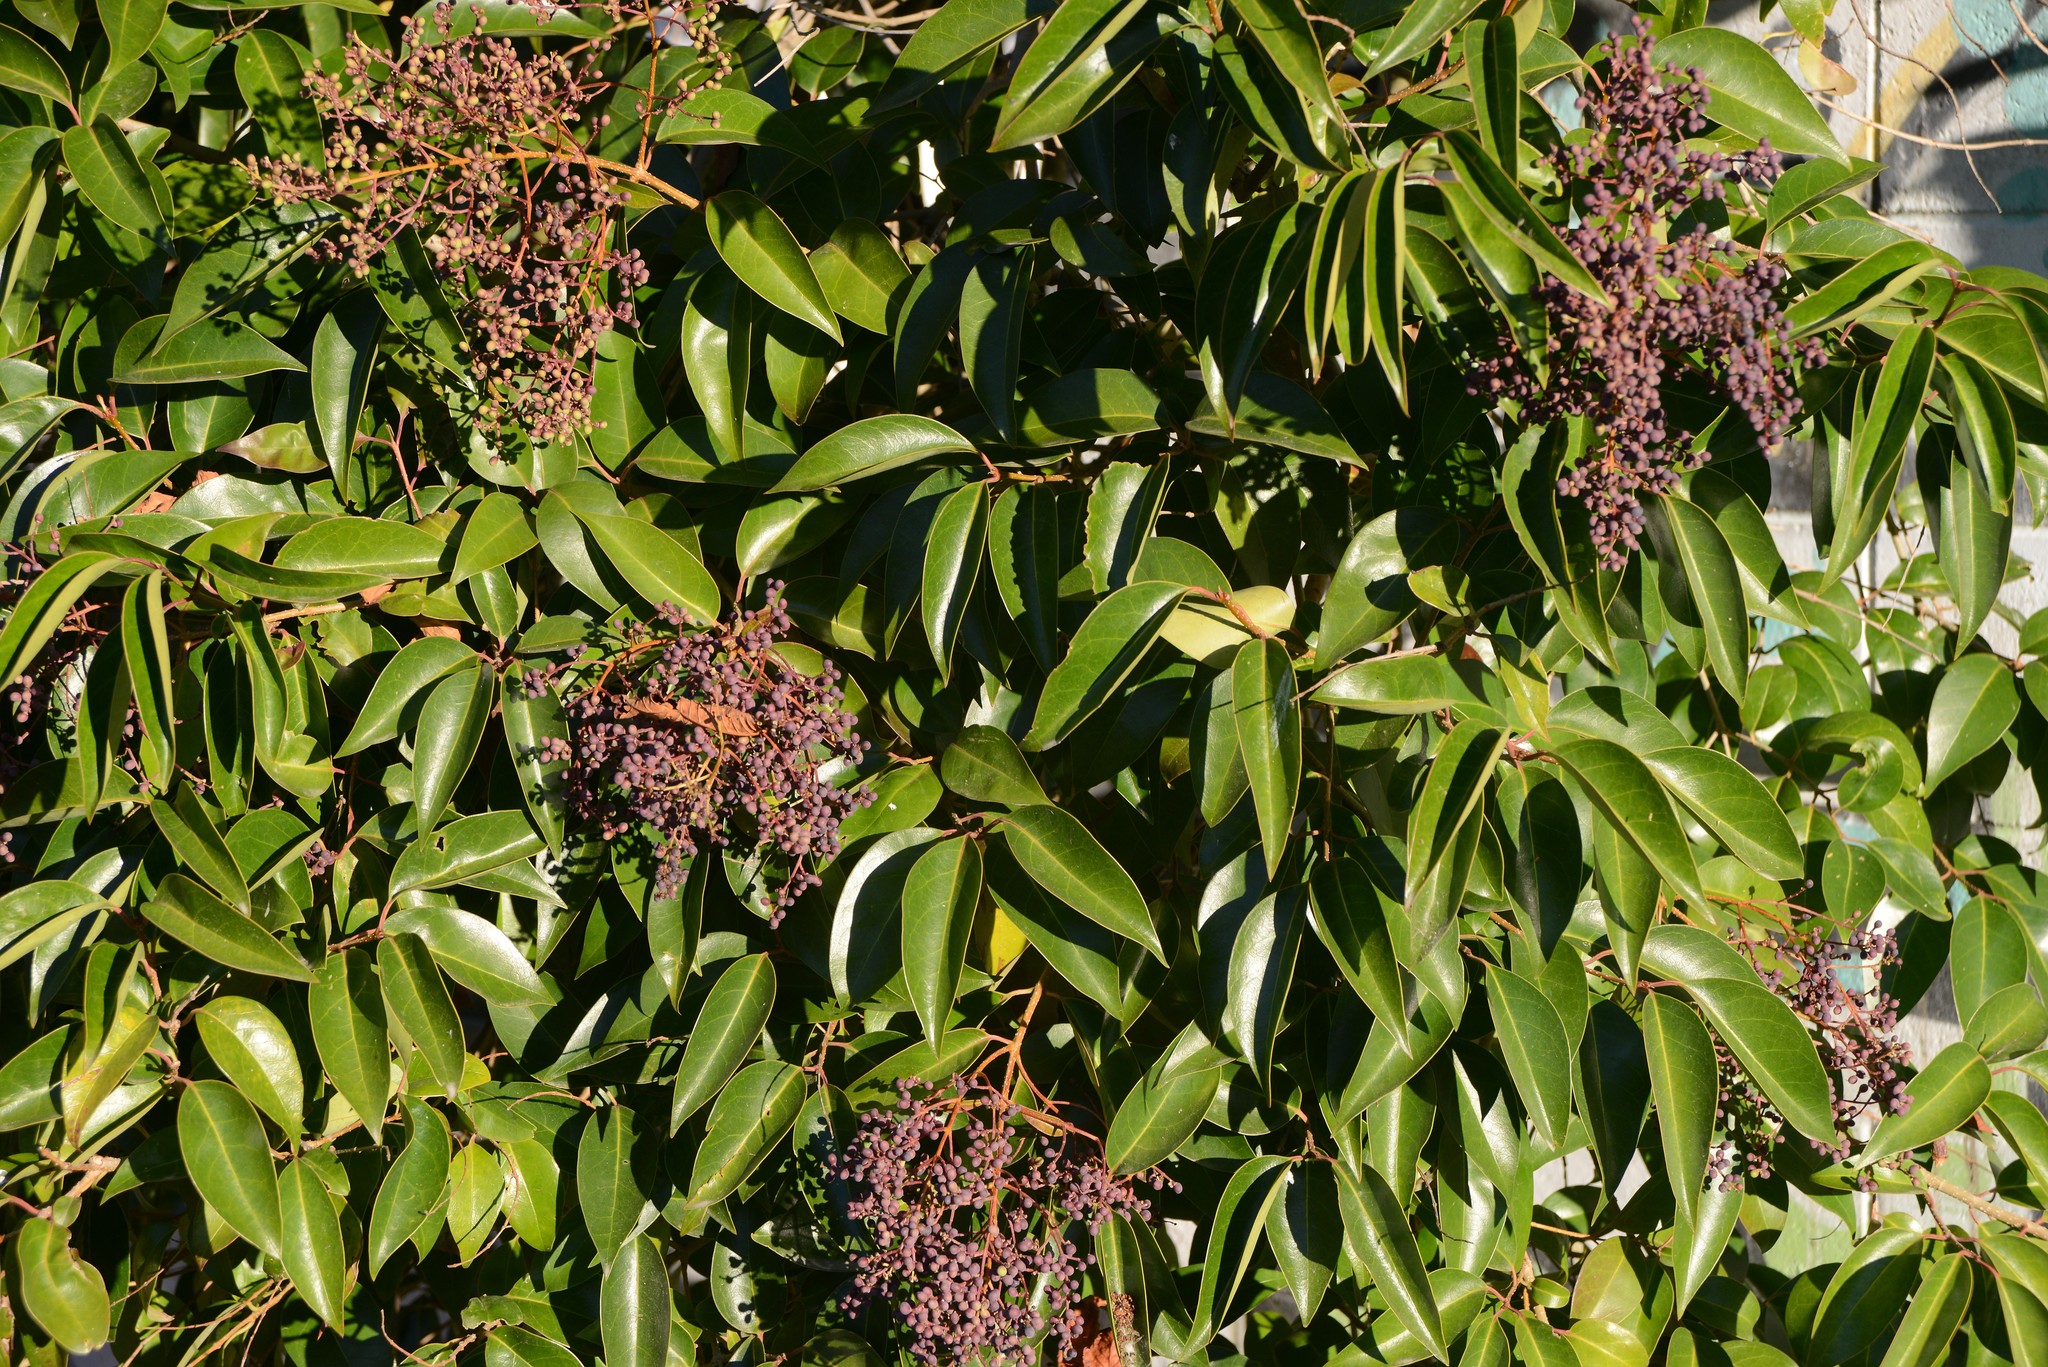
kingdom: Plantae
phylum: Tracheophyta
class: Magnoliopsida
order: Lamiales
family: Oleaceae
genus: Ligustrum
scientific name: Ligustrum lucidum
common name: Glossy privet
